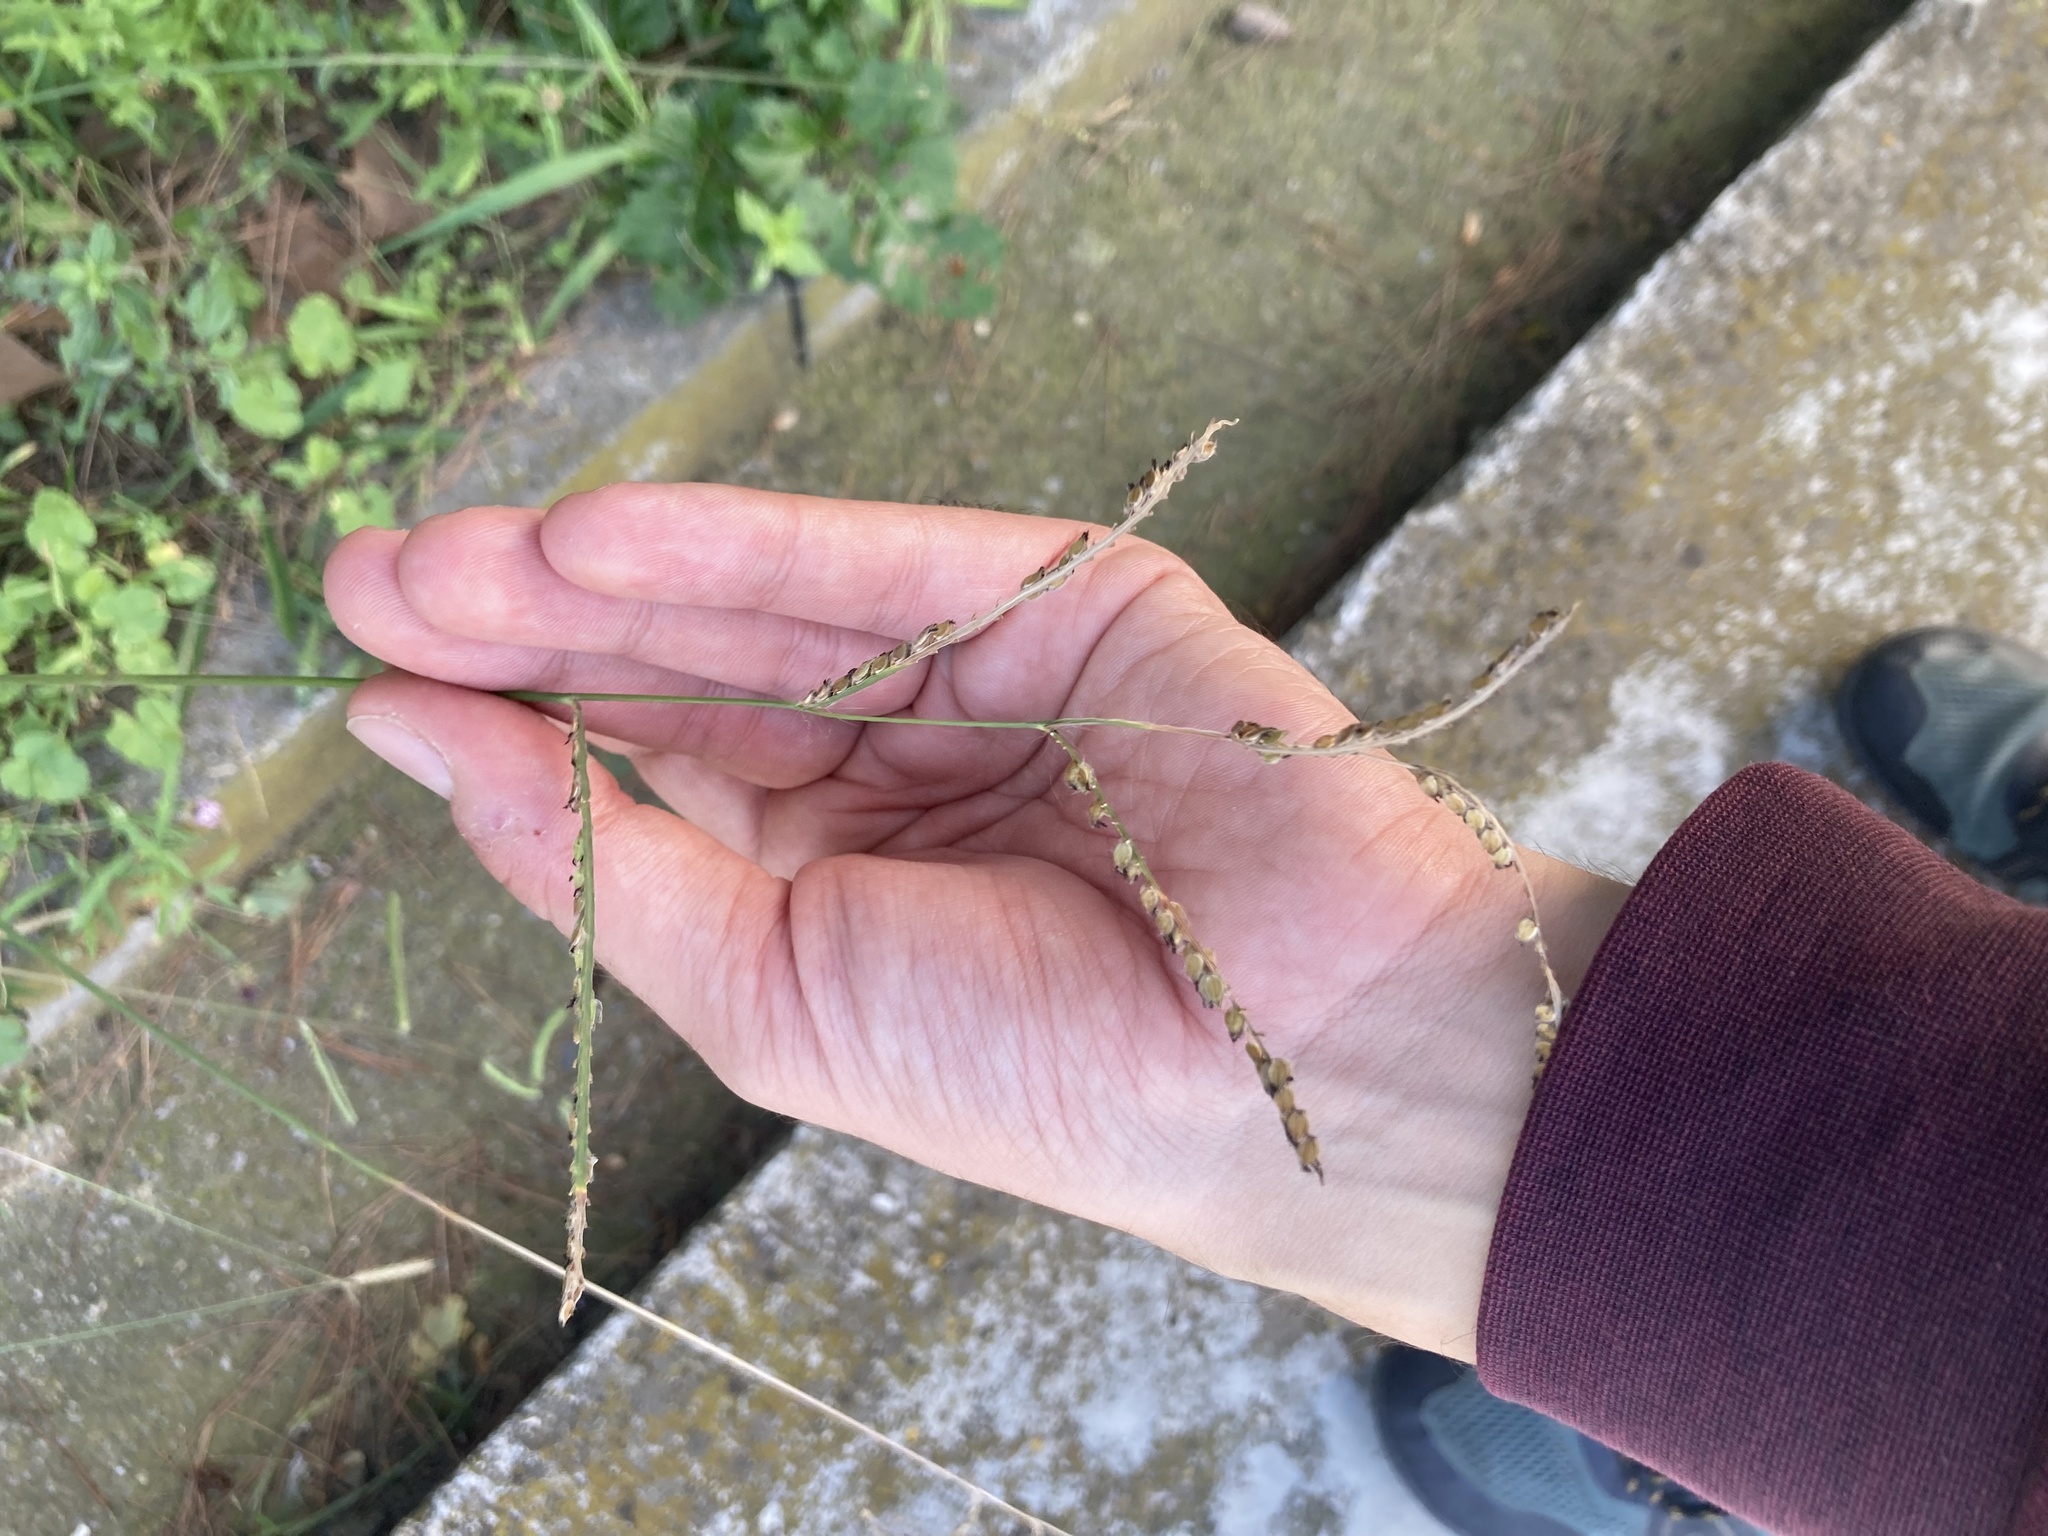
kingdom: Plantae
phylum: Tracheophyta
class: Liliopsida
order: Poales
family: Poaceae
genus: Paspalum
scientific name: Paspalum dilatatum
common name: Dallisgrass
